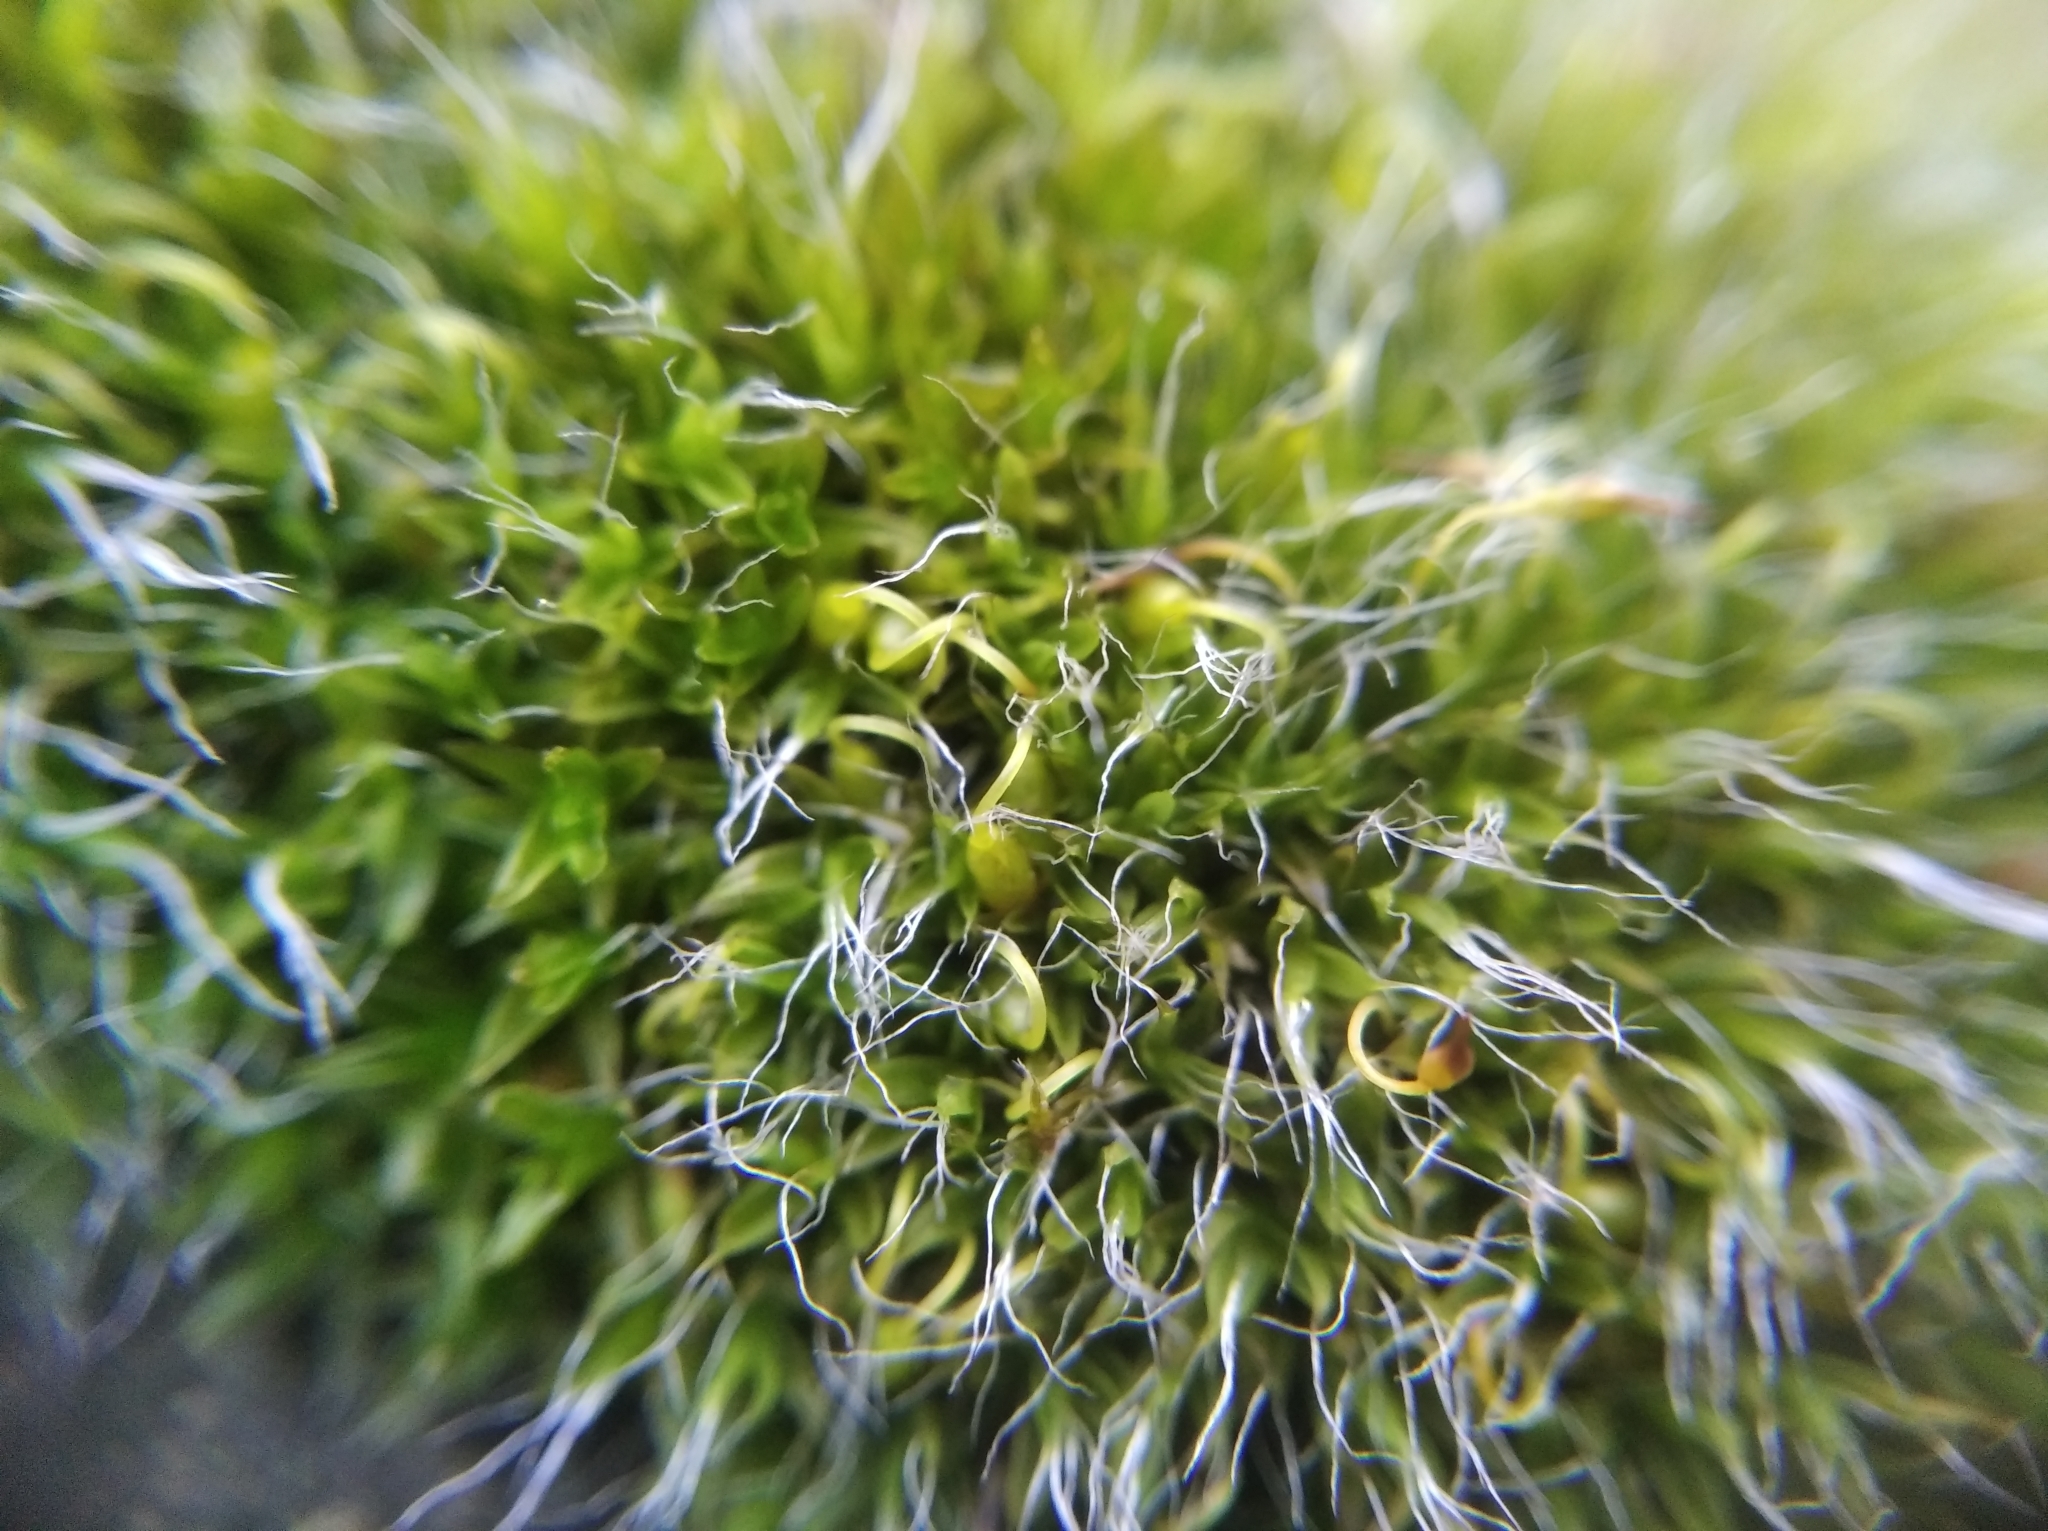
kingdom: Plantae
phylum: Bryophyta
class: Bryopsida
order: Grimmiales
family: Grimmiaceae
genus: Grimmia
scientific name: Grimmia pulvinata
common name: Grey-cushioned grimmia
